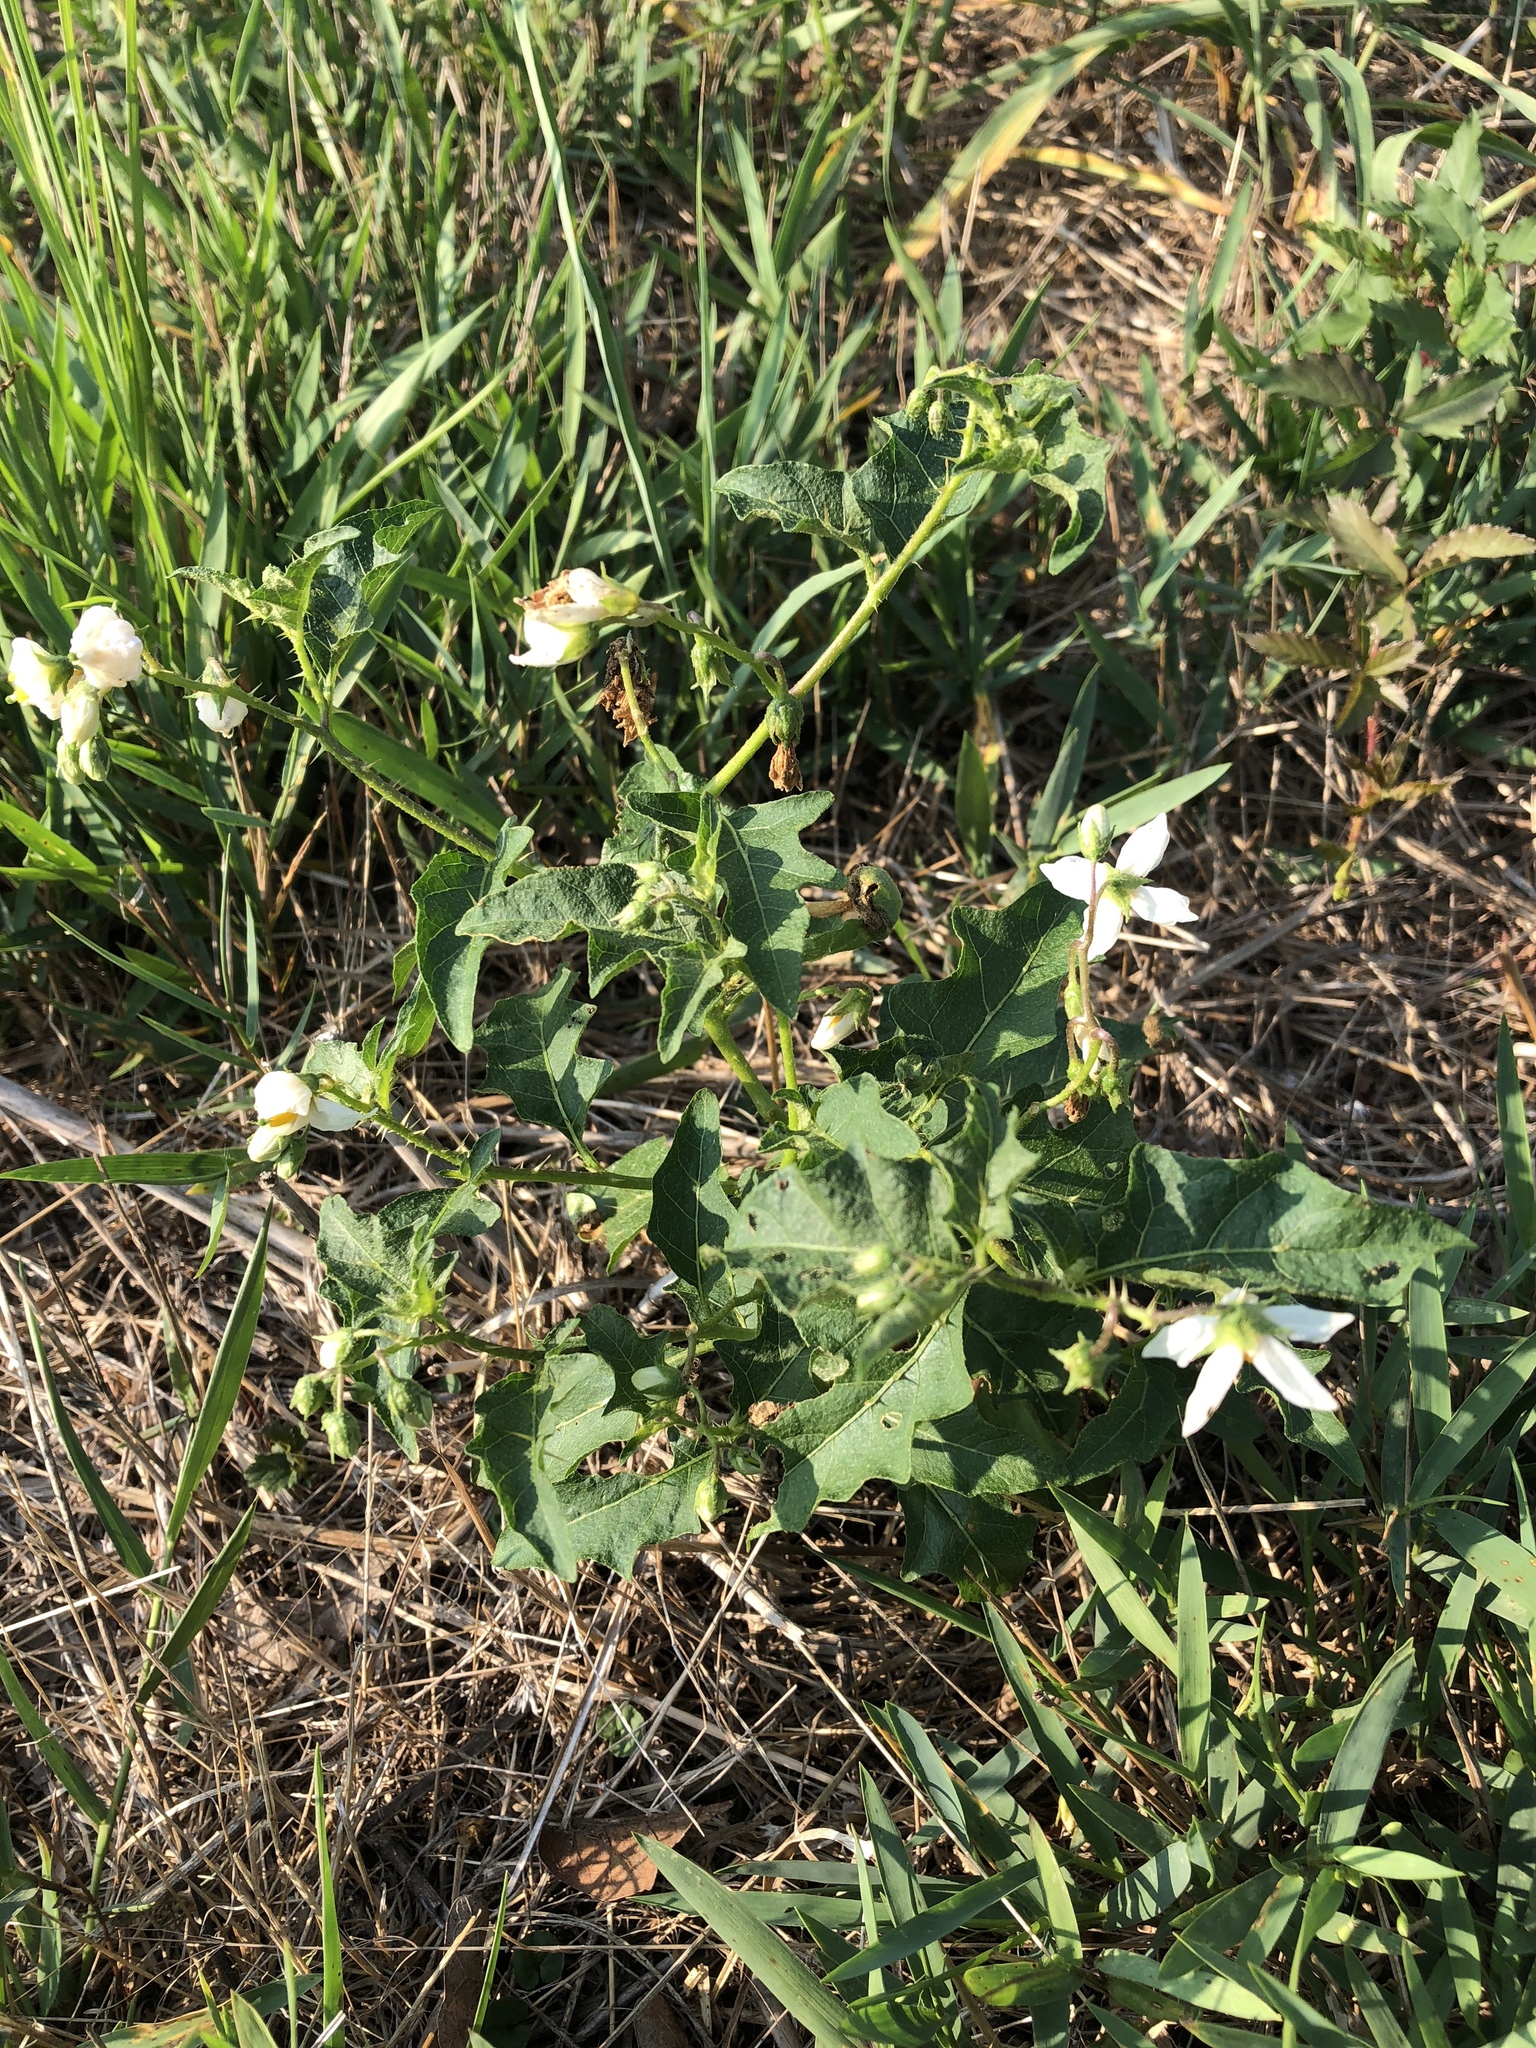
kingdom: Plantae
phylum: Tracheophyta
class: Magnoliopsida
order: Solanales
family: Solanaceae
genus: Solanum
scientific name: Solanum carolinense
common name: Horse-nettle
